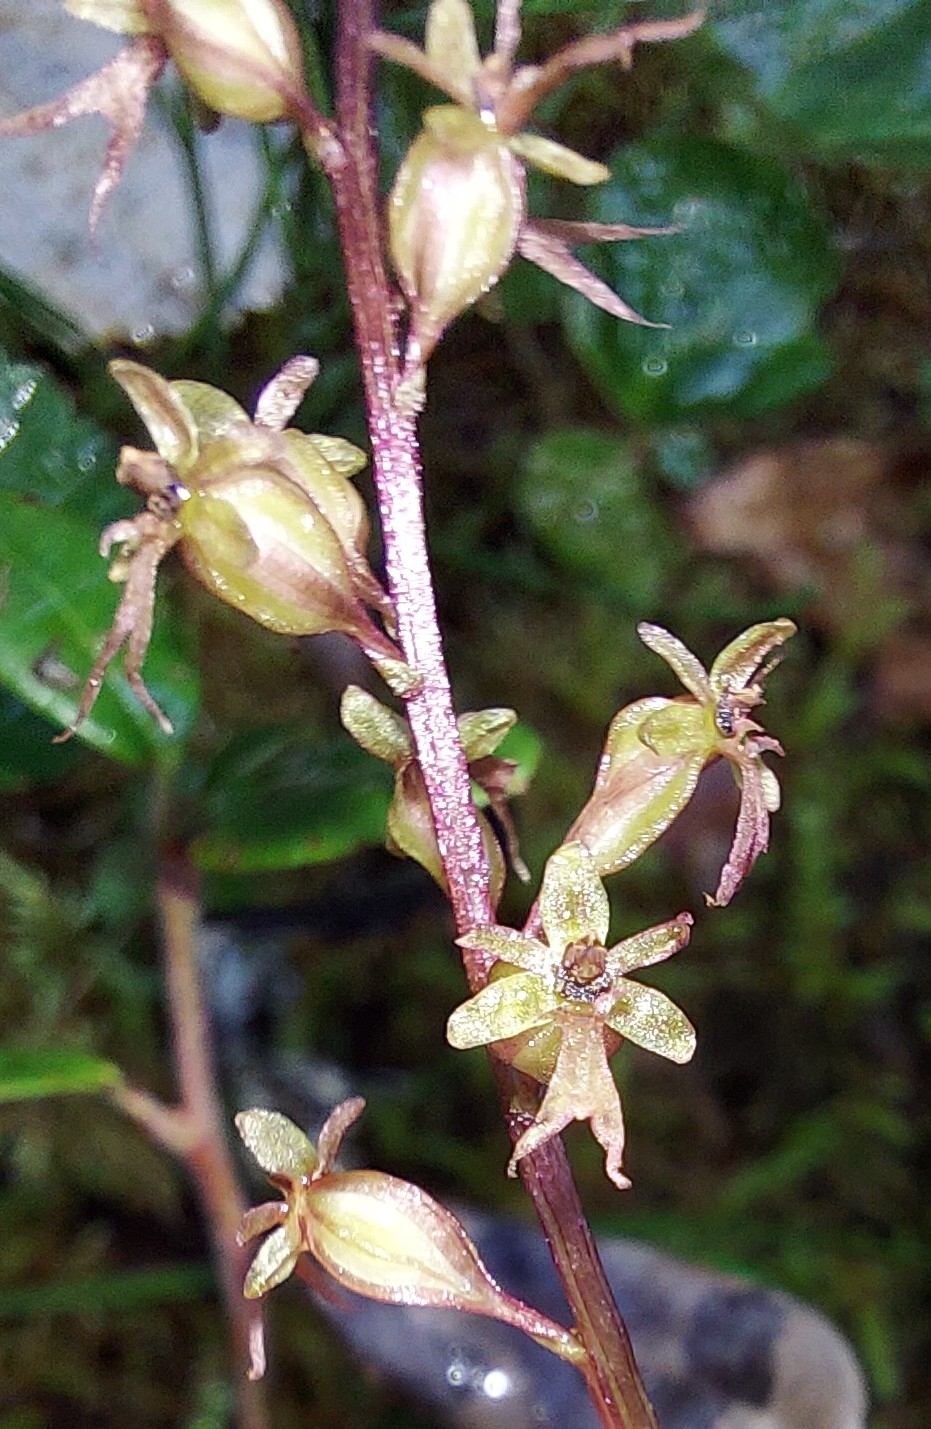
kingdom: Plantae
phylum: Tracheophyta
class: Liliopsida
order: Asparagales
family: Orchidaceae
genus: Neottia
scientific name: Neottia cordata
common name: Lesser twayblade
